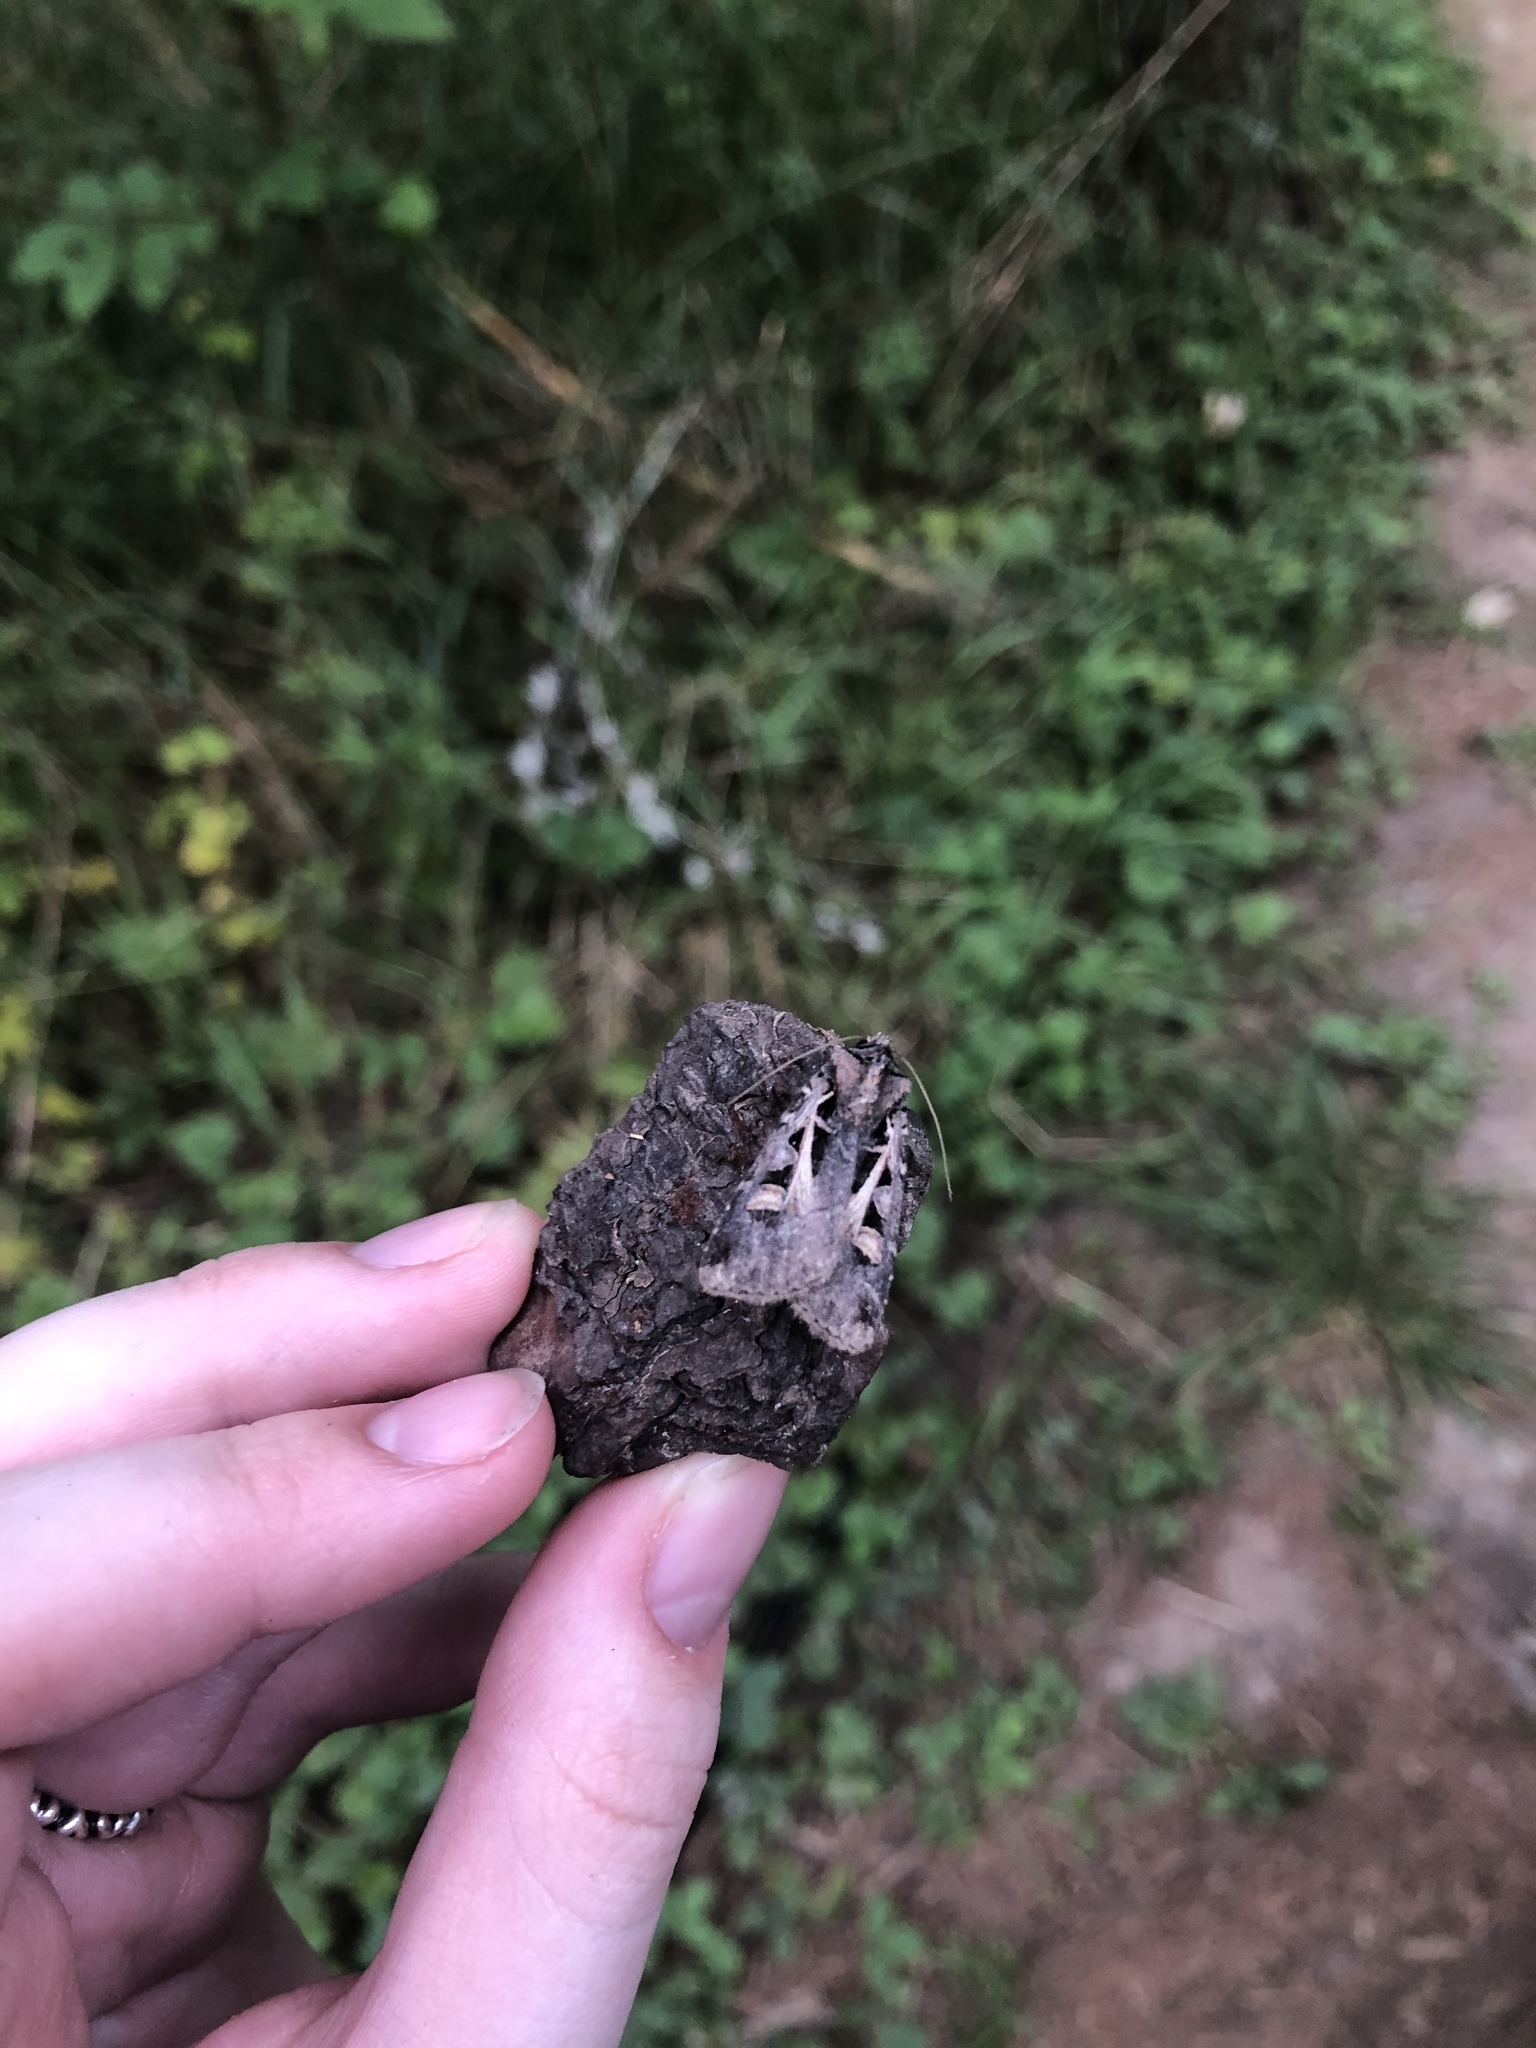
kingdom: Animalia
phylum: Arthropoda
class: Insecta
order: Lepidoptera
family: Noctuidae
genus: Feltia
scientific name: Feltia herilis
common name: Master's dart
